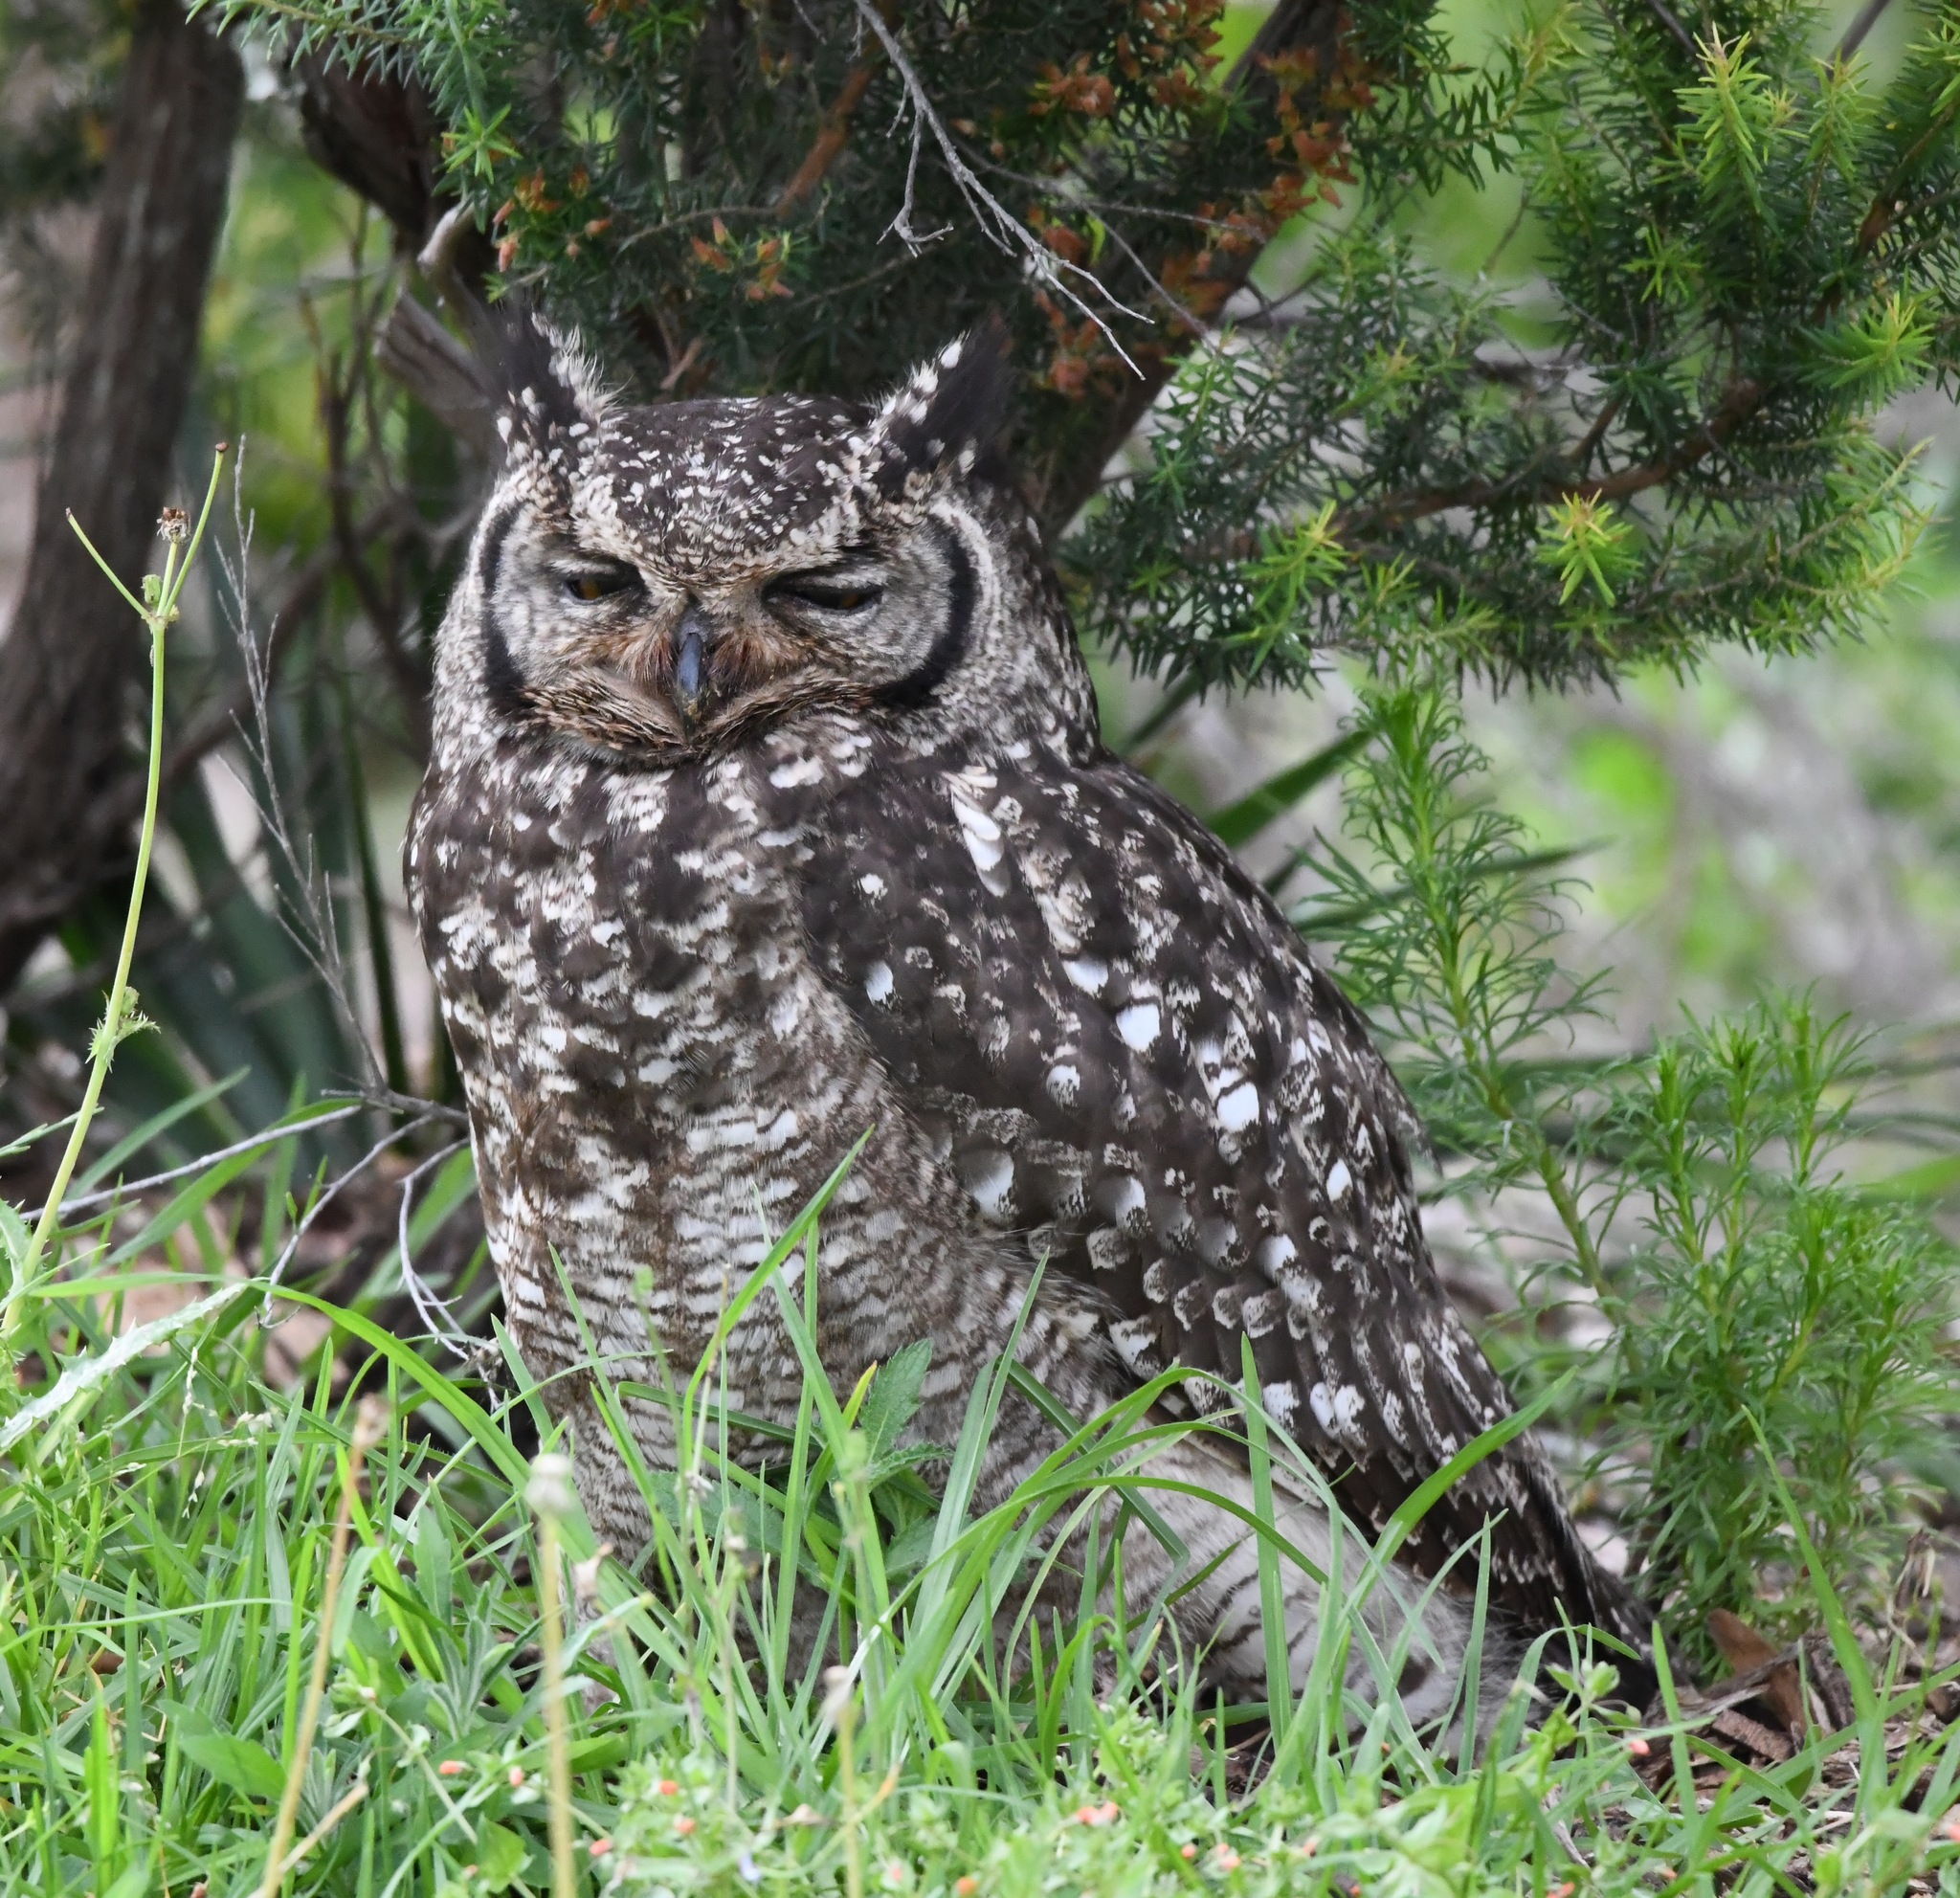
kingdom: Animalia
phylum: Chordata
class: Aves
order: Strigiformes
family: Strigidae
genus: Bubo
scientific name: Bubo africanus
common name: Spotted eagle-owl
